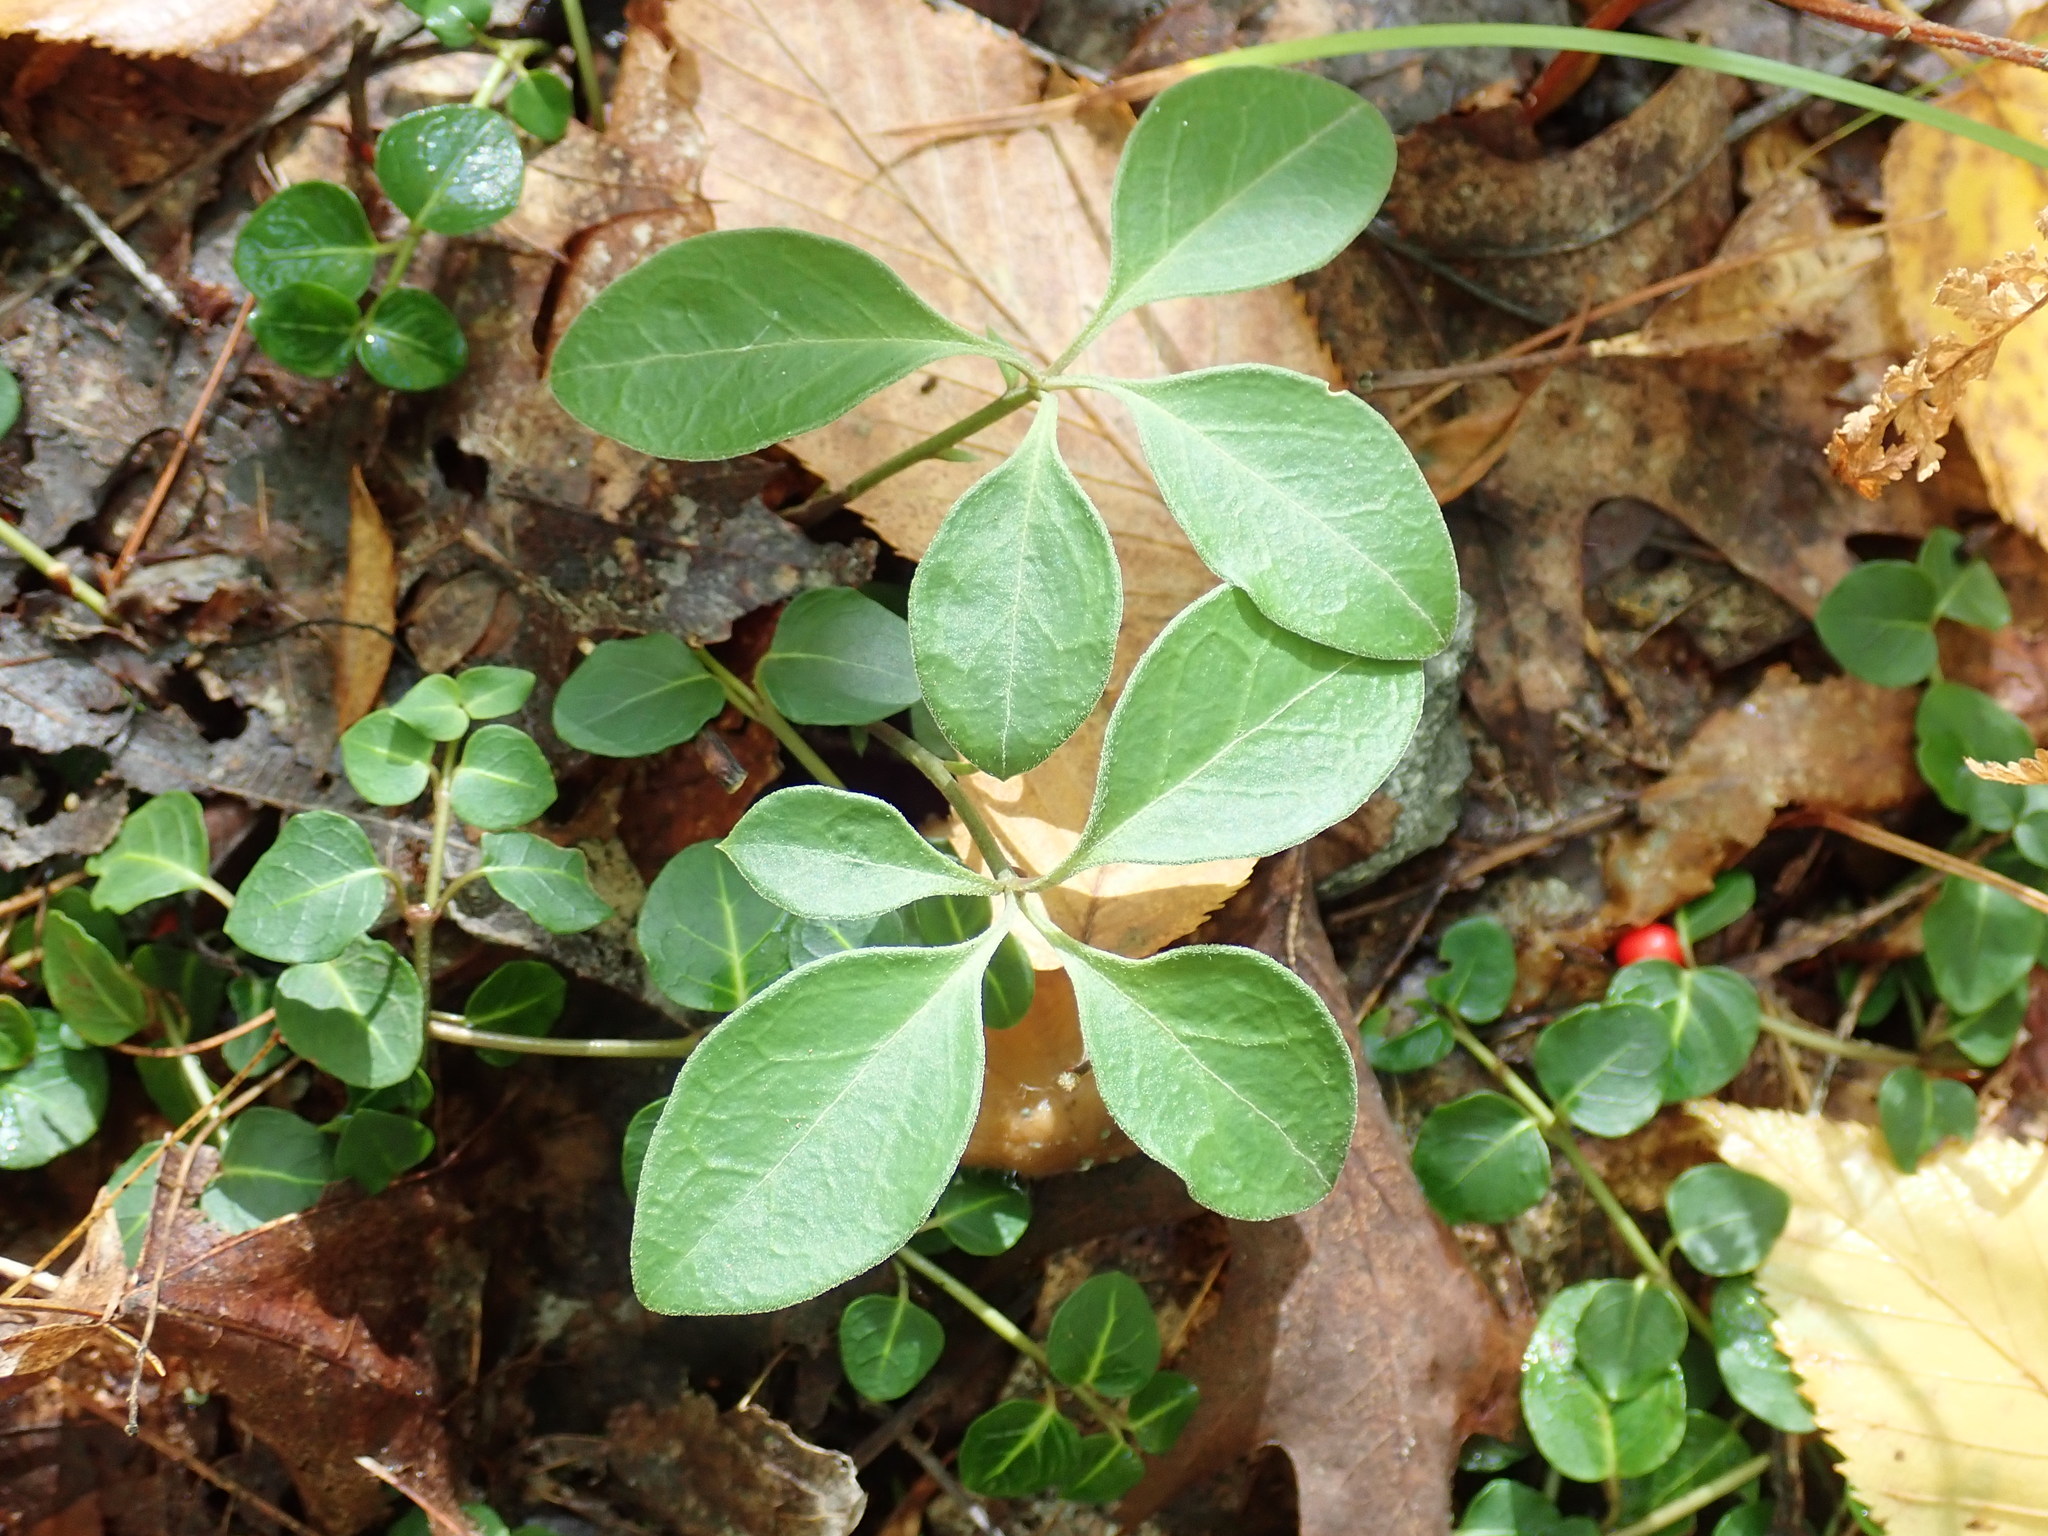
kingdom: Plantae
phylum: Tracheophyta
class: Magnoliopsida
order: Fabales
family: Polygalaceae
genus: Polygaloides
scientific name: Polygaloides paucifolia
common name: Bird-on-the-wing
